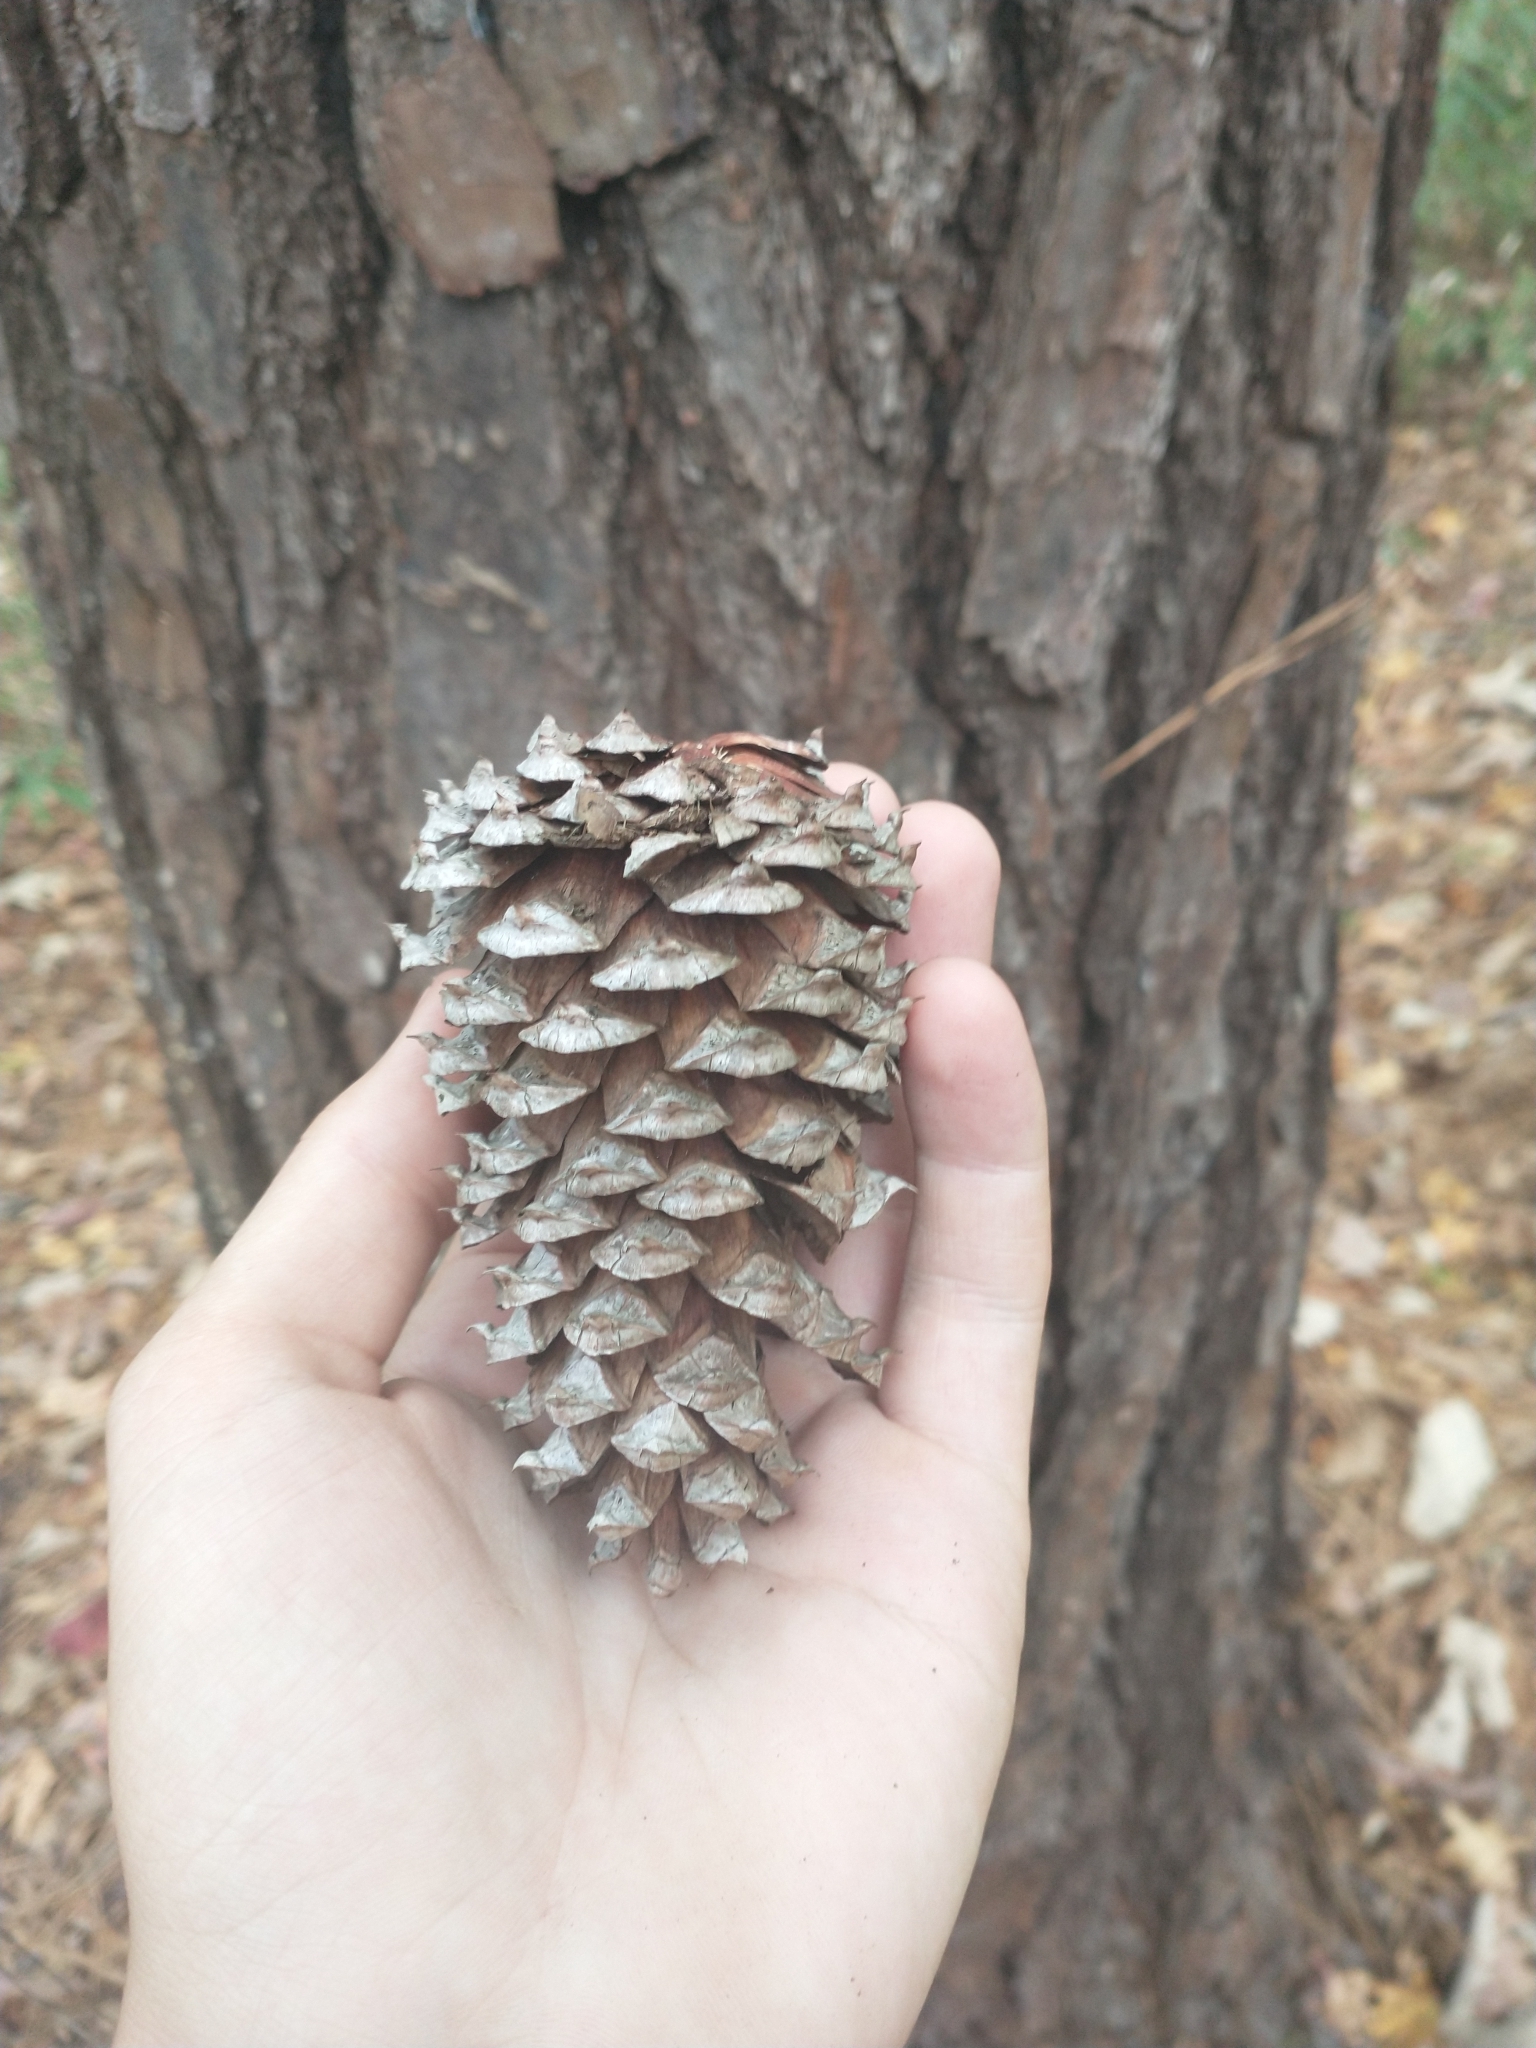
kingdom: Plantae
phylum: Tracheophyta
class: Pinopsida
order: Pinales
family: Pinaceae
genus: Pinus
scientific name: Pinus taeda
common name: Loblolly pine
